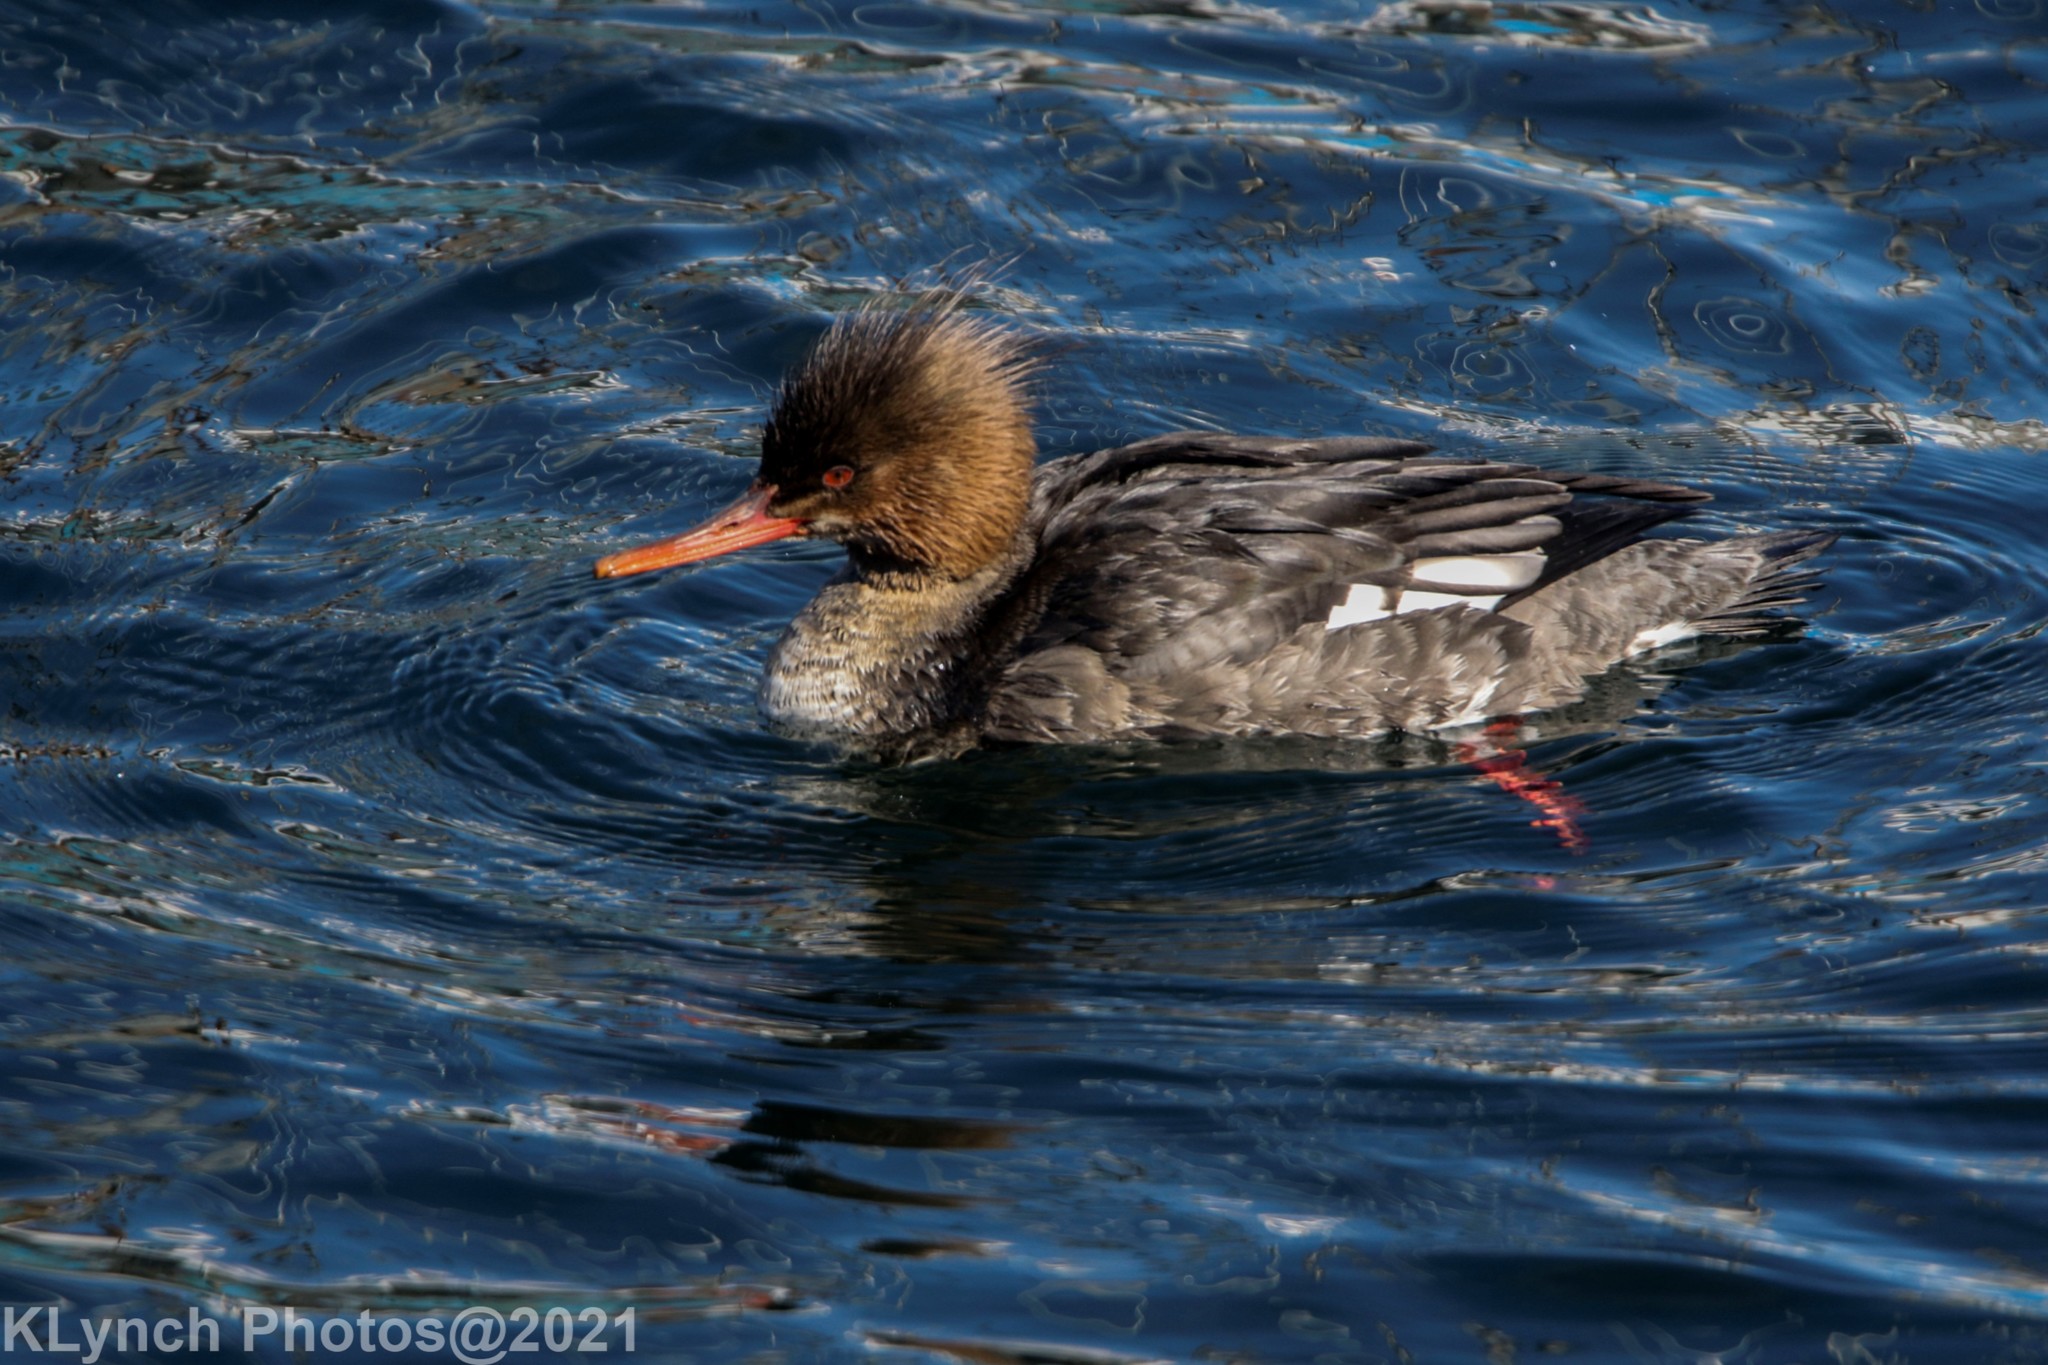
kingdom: Animalia
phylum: Chordata
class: Aves
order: Anseriformes
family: Anatidae
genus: Mergus
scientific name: Mergus serrator
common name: Red-breasted merganser
